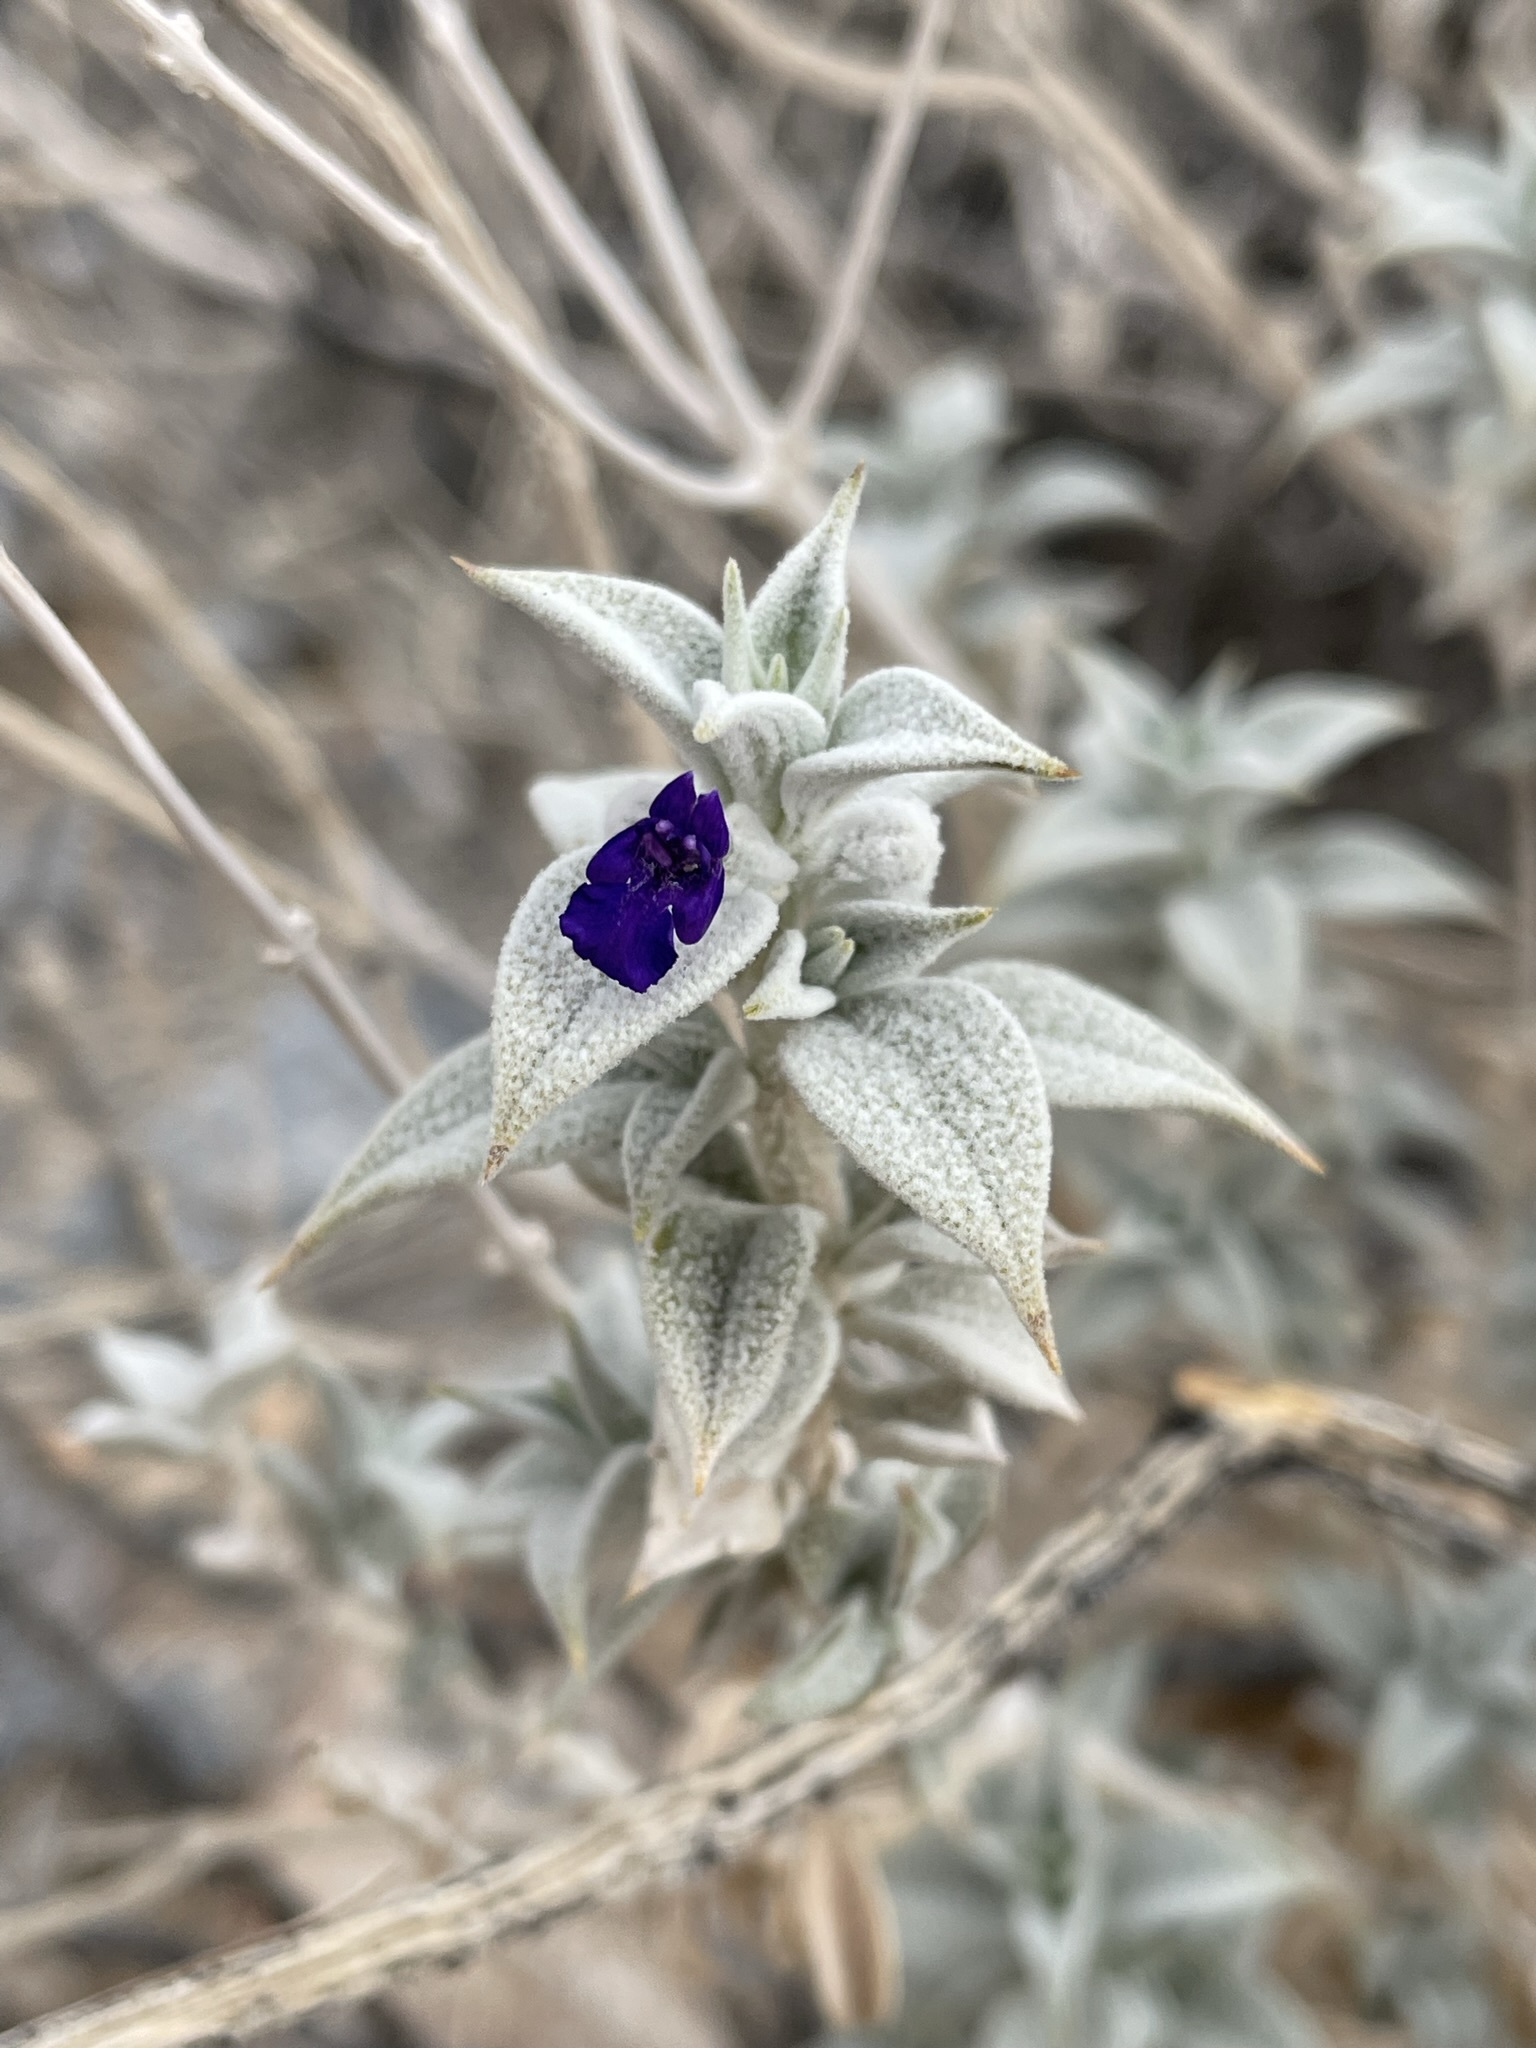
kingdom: Plantae
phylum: Tracheophyta
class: Magnoliopsida
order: Lamiales
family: Lamiaceae
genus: Salvia
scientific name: Salvia funerea
